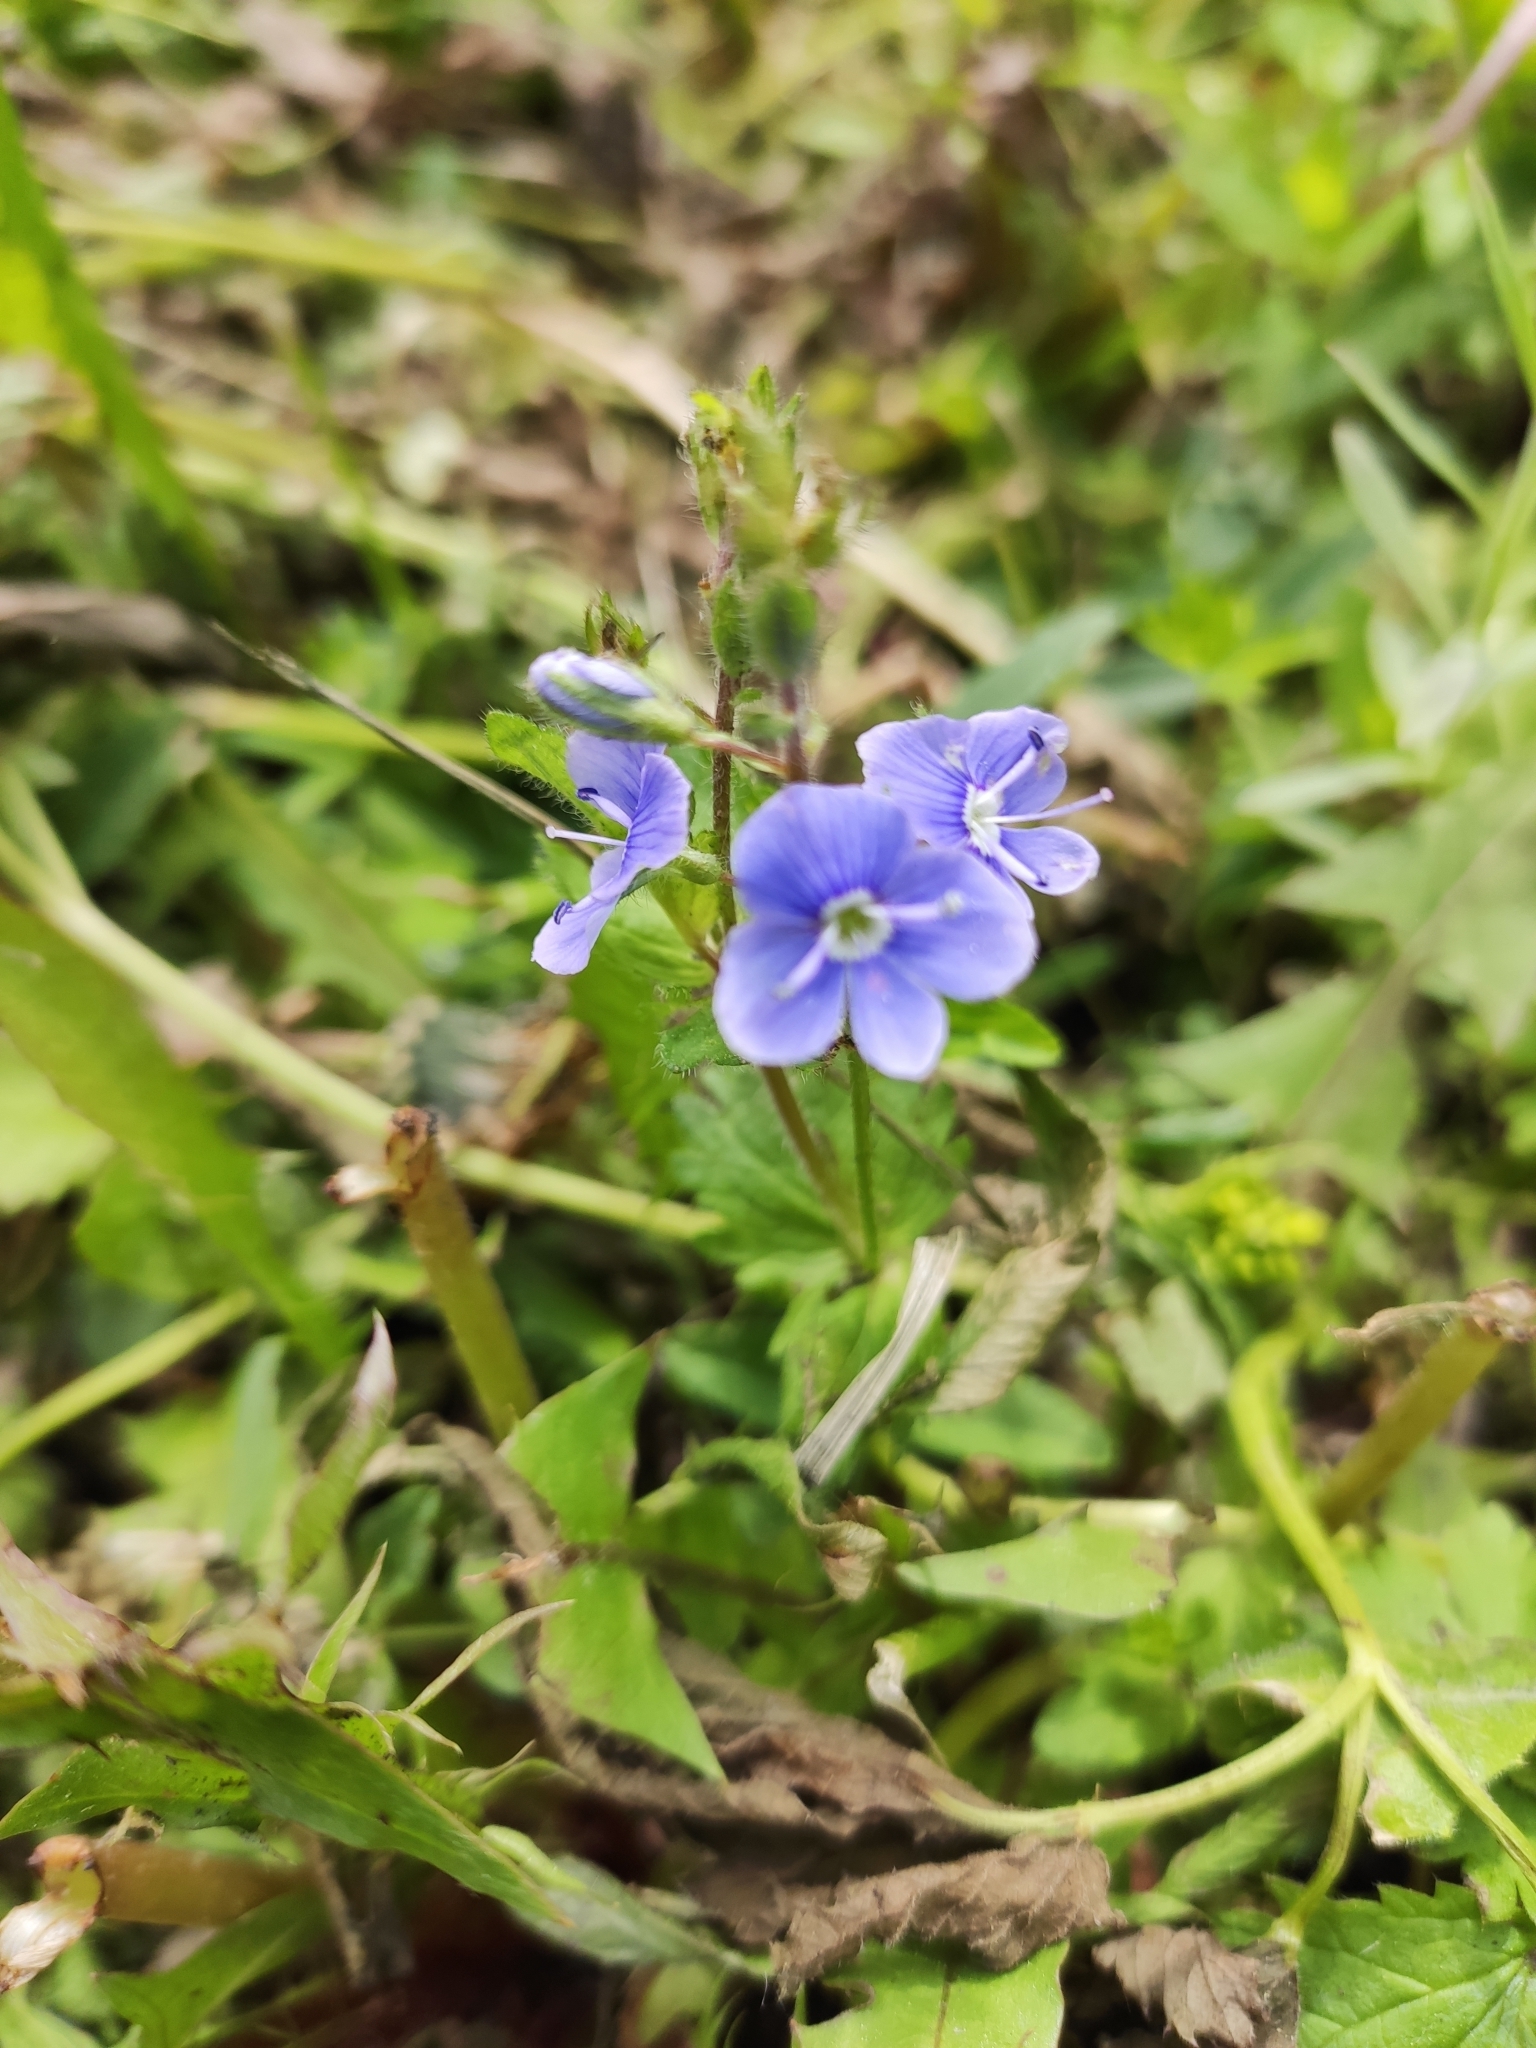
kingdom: Plantae
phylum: Tracheophyta
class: Magnoliopsida
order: Lamiales
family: Plantaginaceae
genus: Veronica
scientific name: Veronica chamaedrys
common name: Germander speedwell
